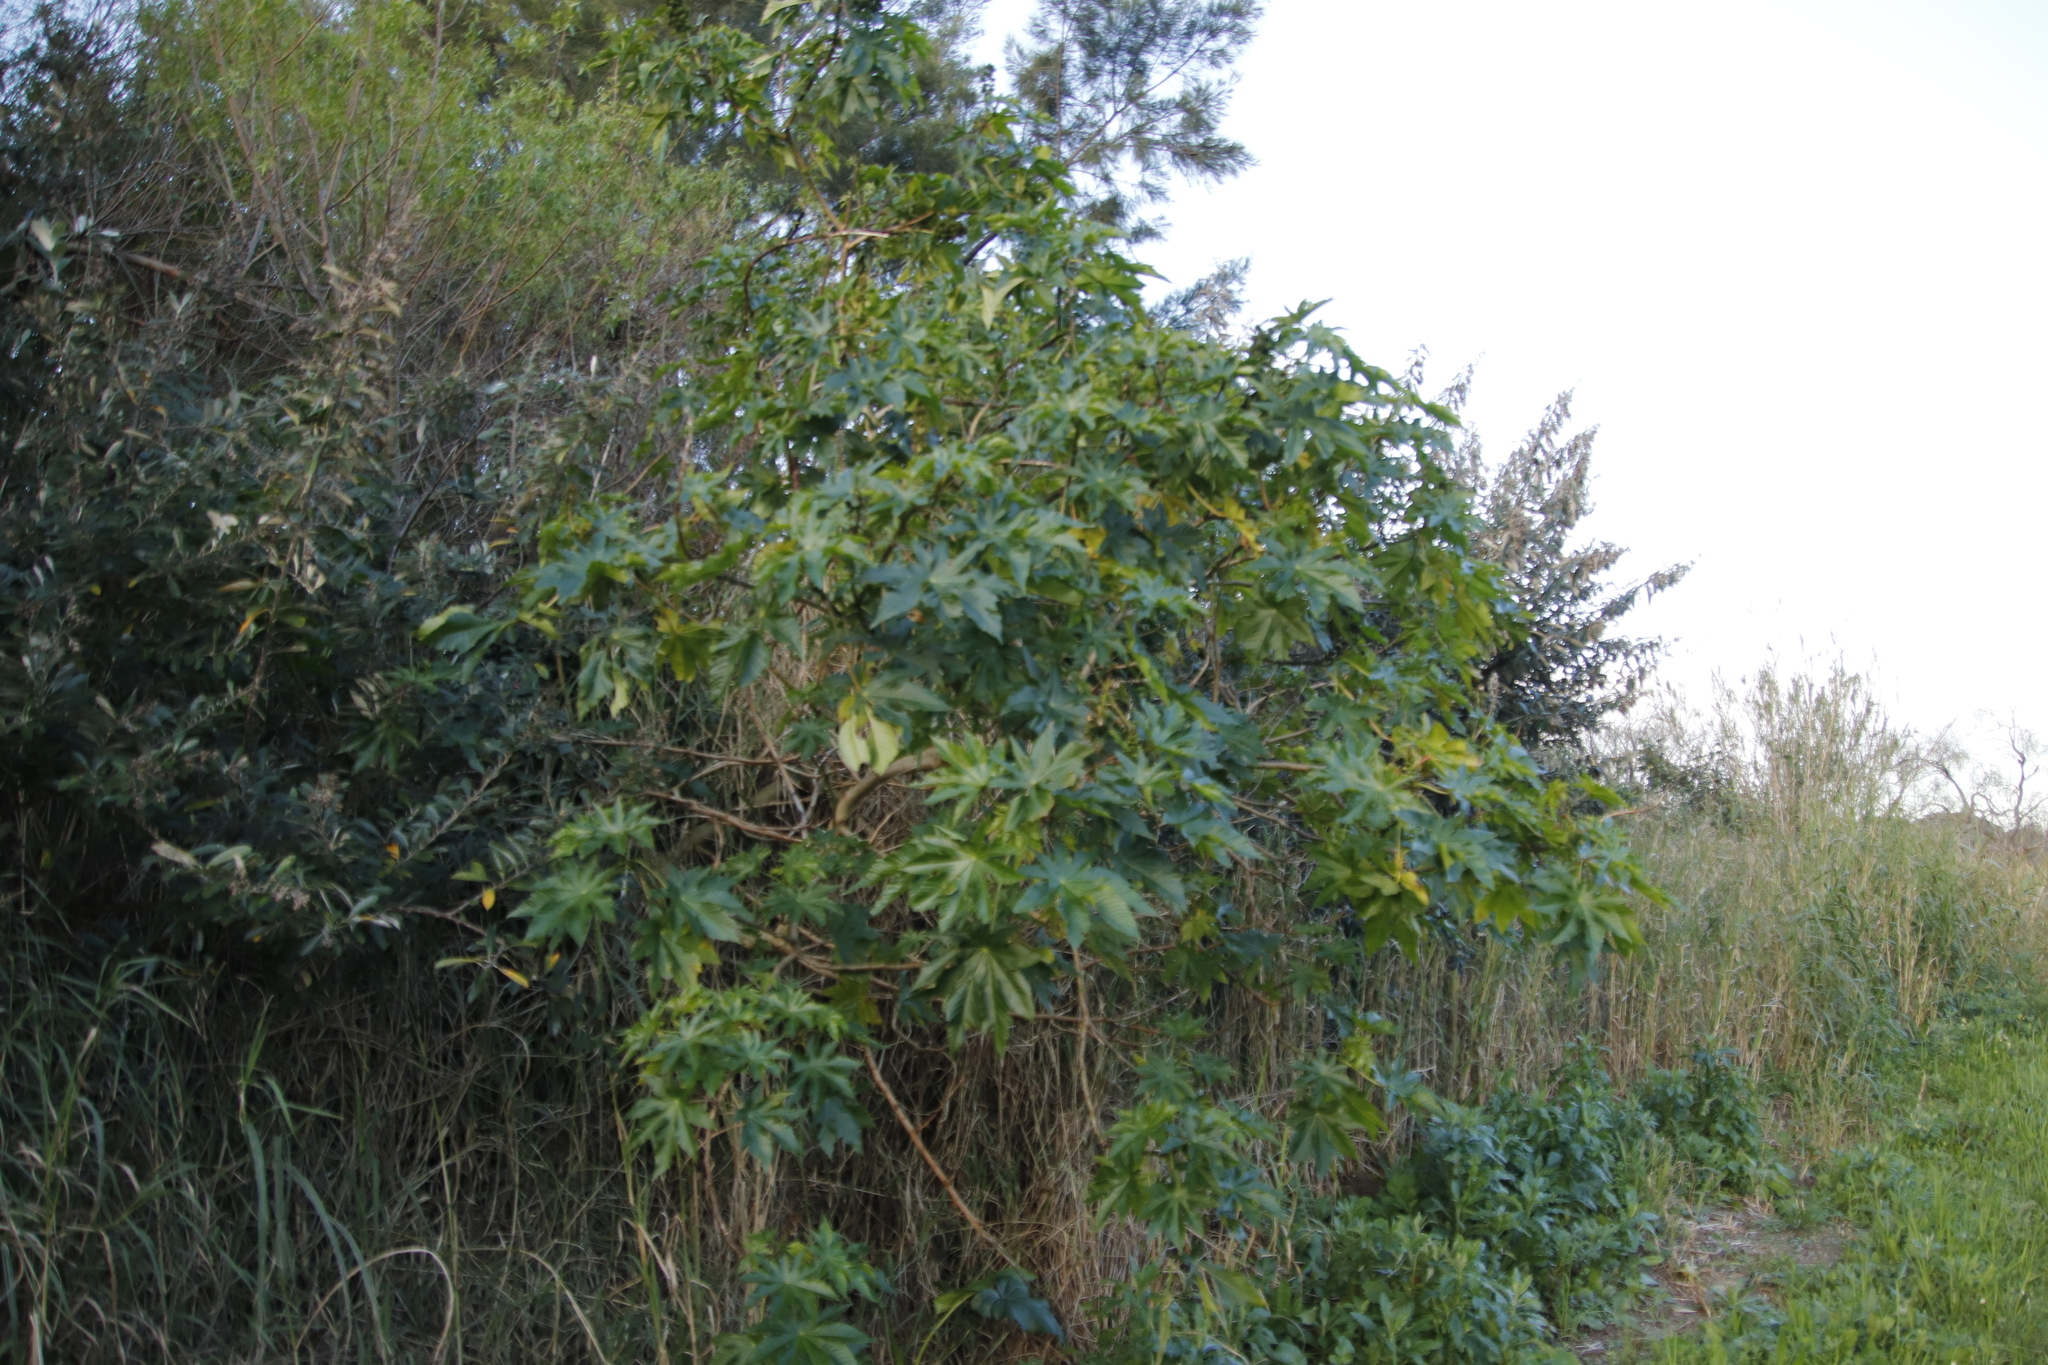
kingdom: Plantae
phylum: Tracheophyta
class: Magnoliopsida
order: Malpighiales
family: Euphorbiaceae
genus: Ricinus
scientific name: Ricinus communis
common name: Castor-oil-plant
